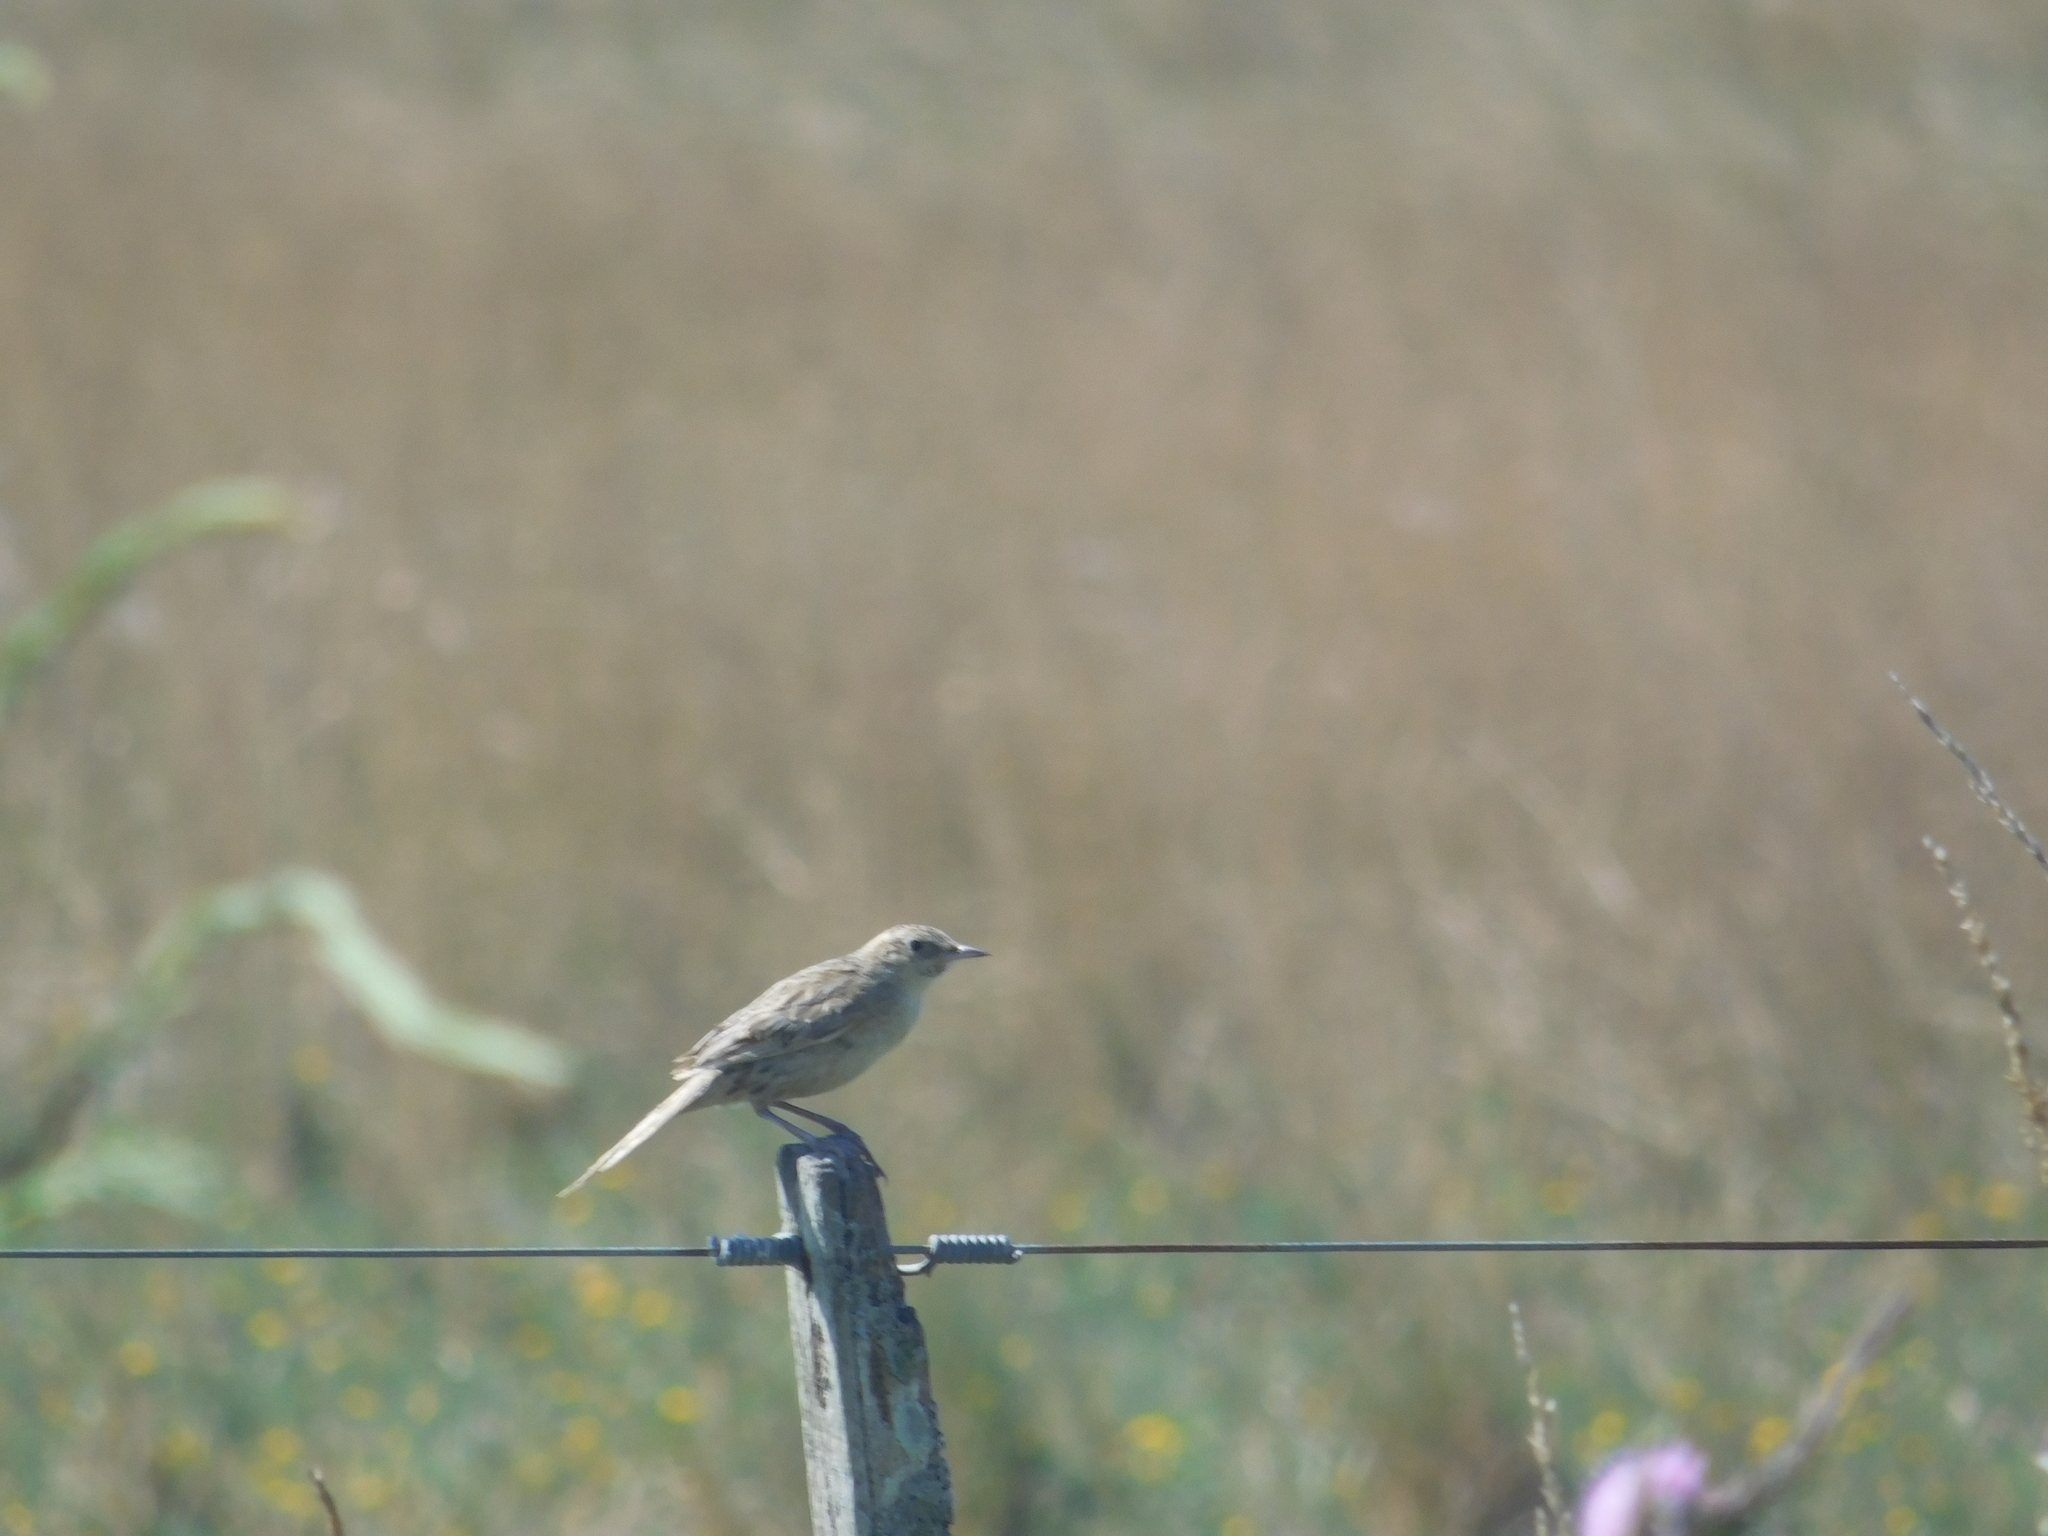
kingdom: Animalia
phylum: Chordata
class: Aves
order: Passeriformes
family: Furnariidae
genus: Asthenes
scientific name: Asthenes hudsoni
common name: Hudson's canastero
